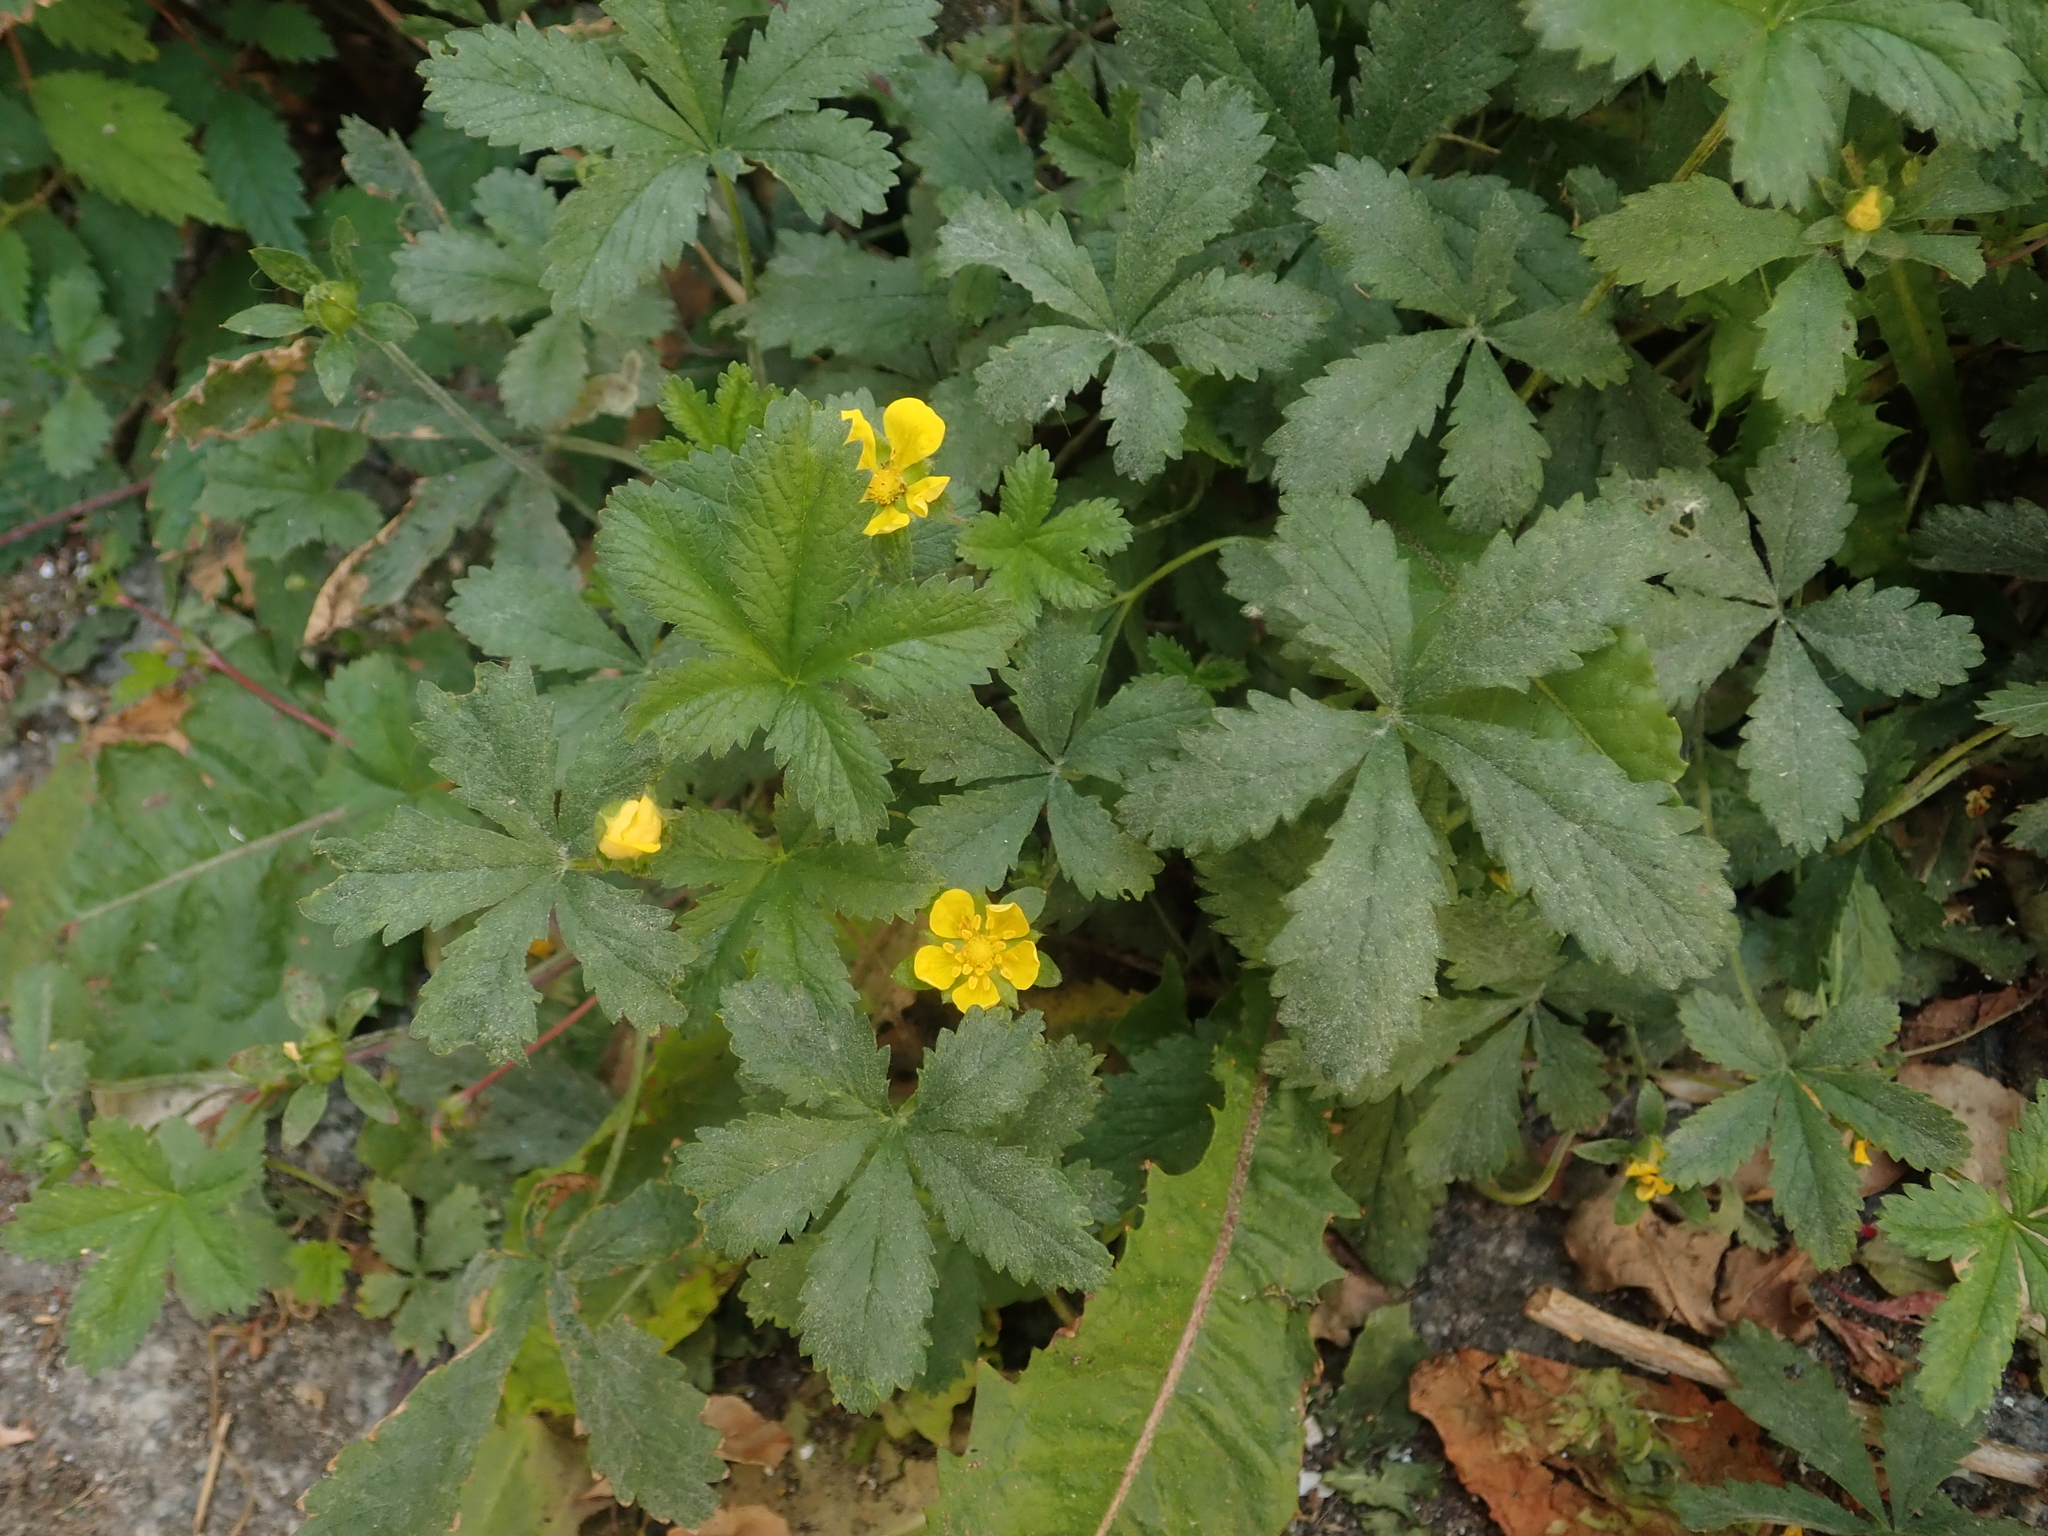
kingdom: Plantae
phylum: Tracheophyta
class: Magnoliopsida
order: Rosales
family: Rosaceae
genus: Potentilla
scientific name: Potentilla reptans
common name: Creeping cinquefoil
